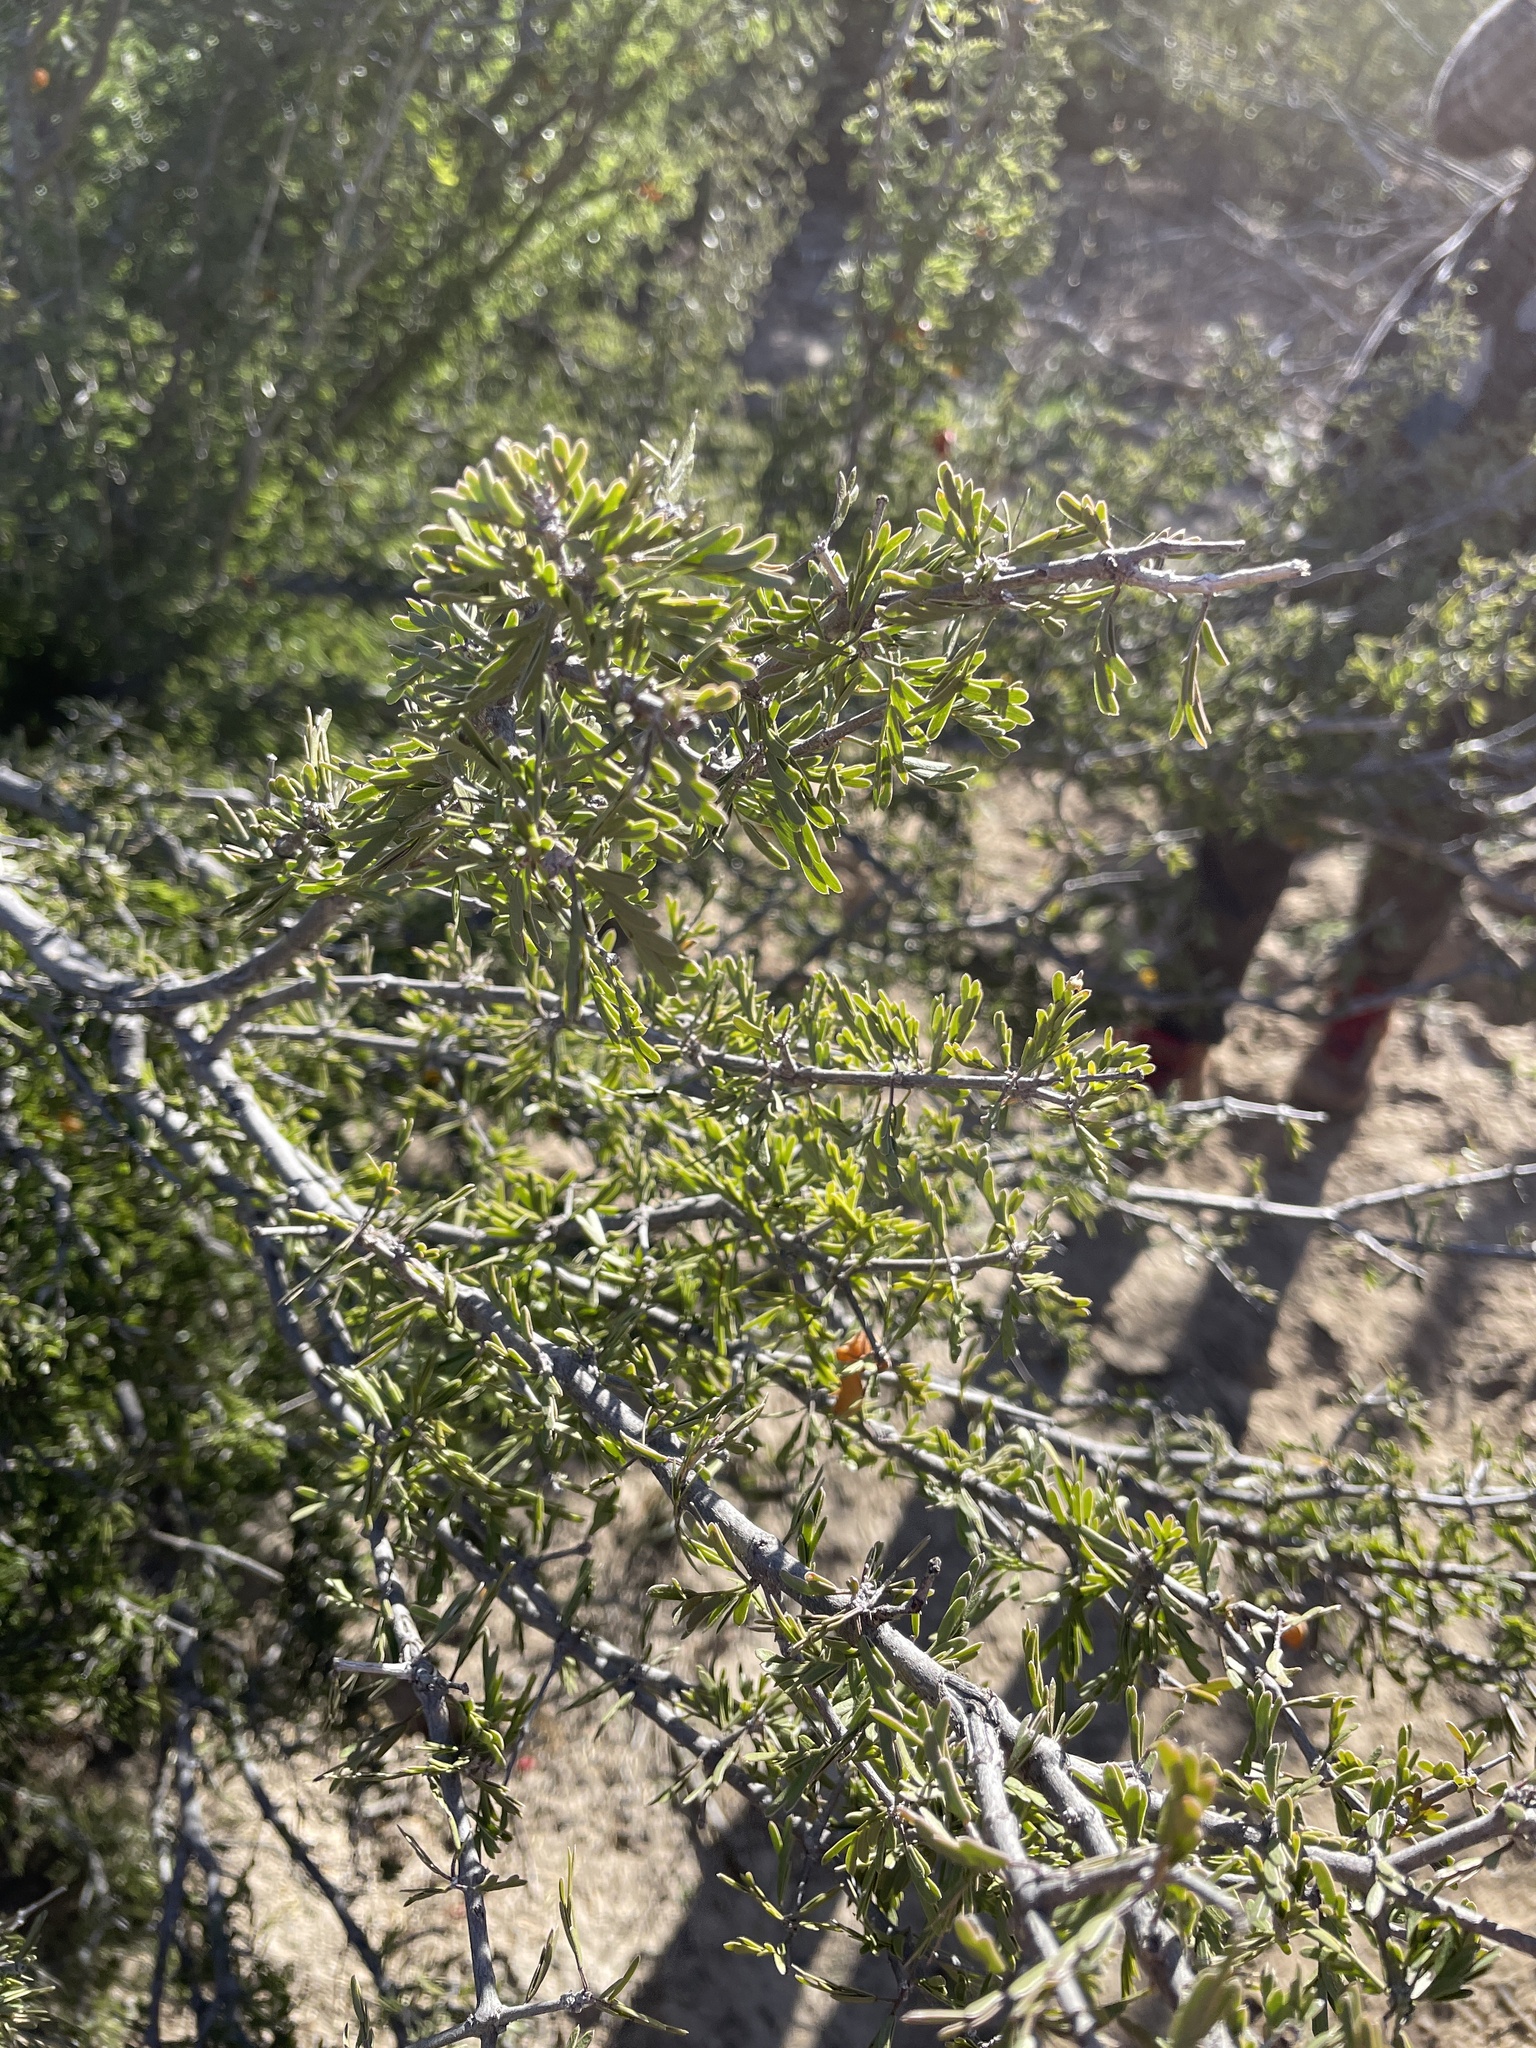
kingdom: Plantae
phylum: Tracheophyta
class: Magnoliopsida
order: Zygophyllales
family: Zygophyllaceae
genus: Porlieria
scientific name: Porlieria angustifolia
